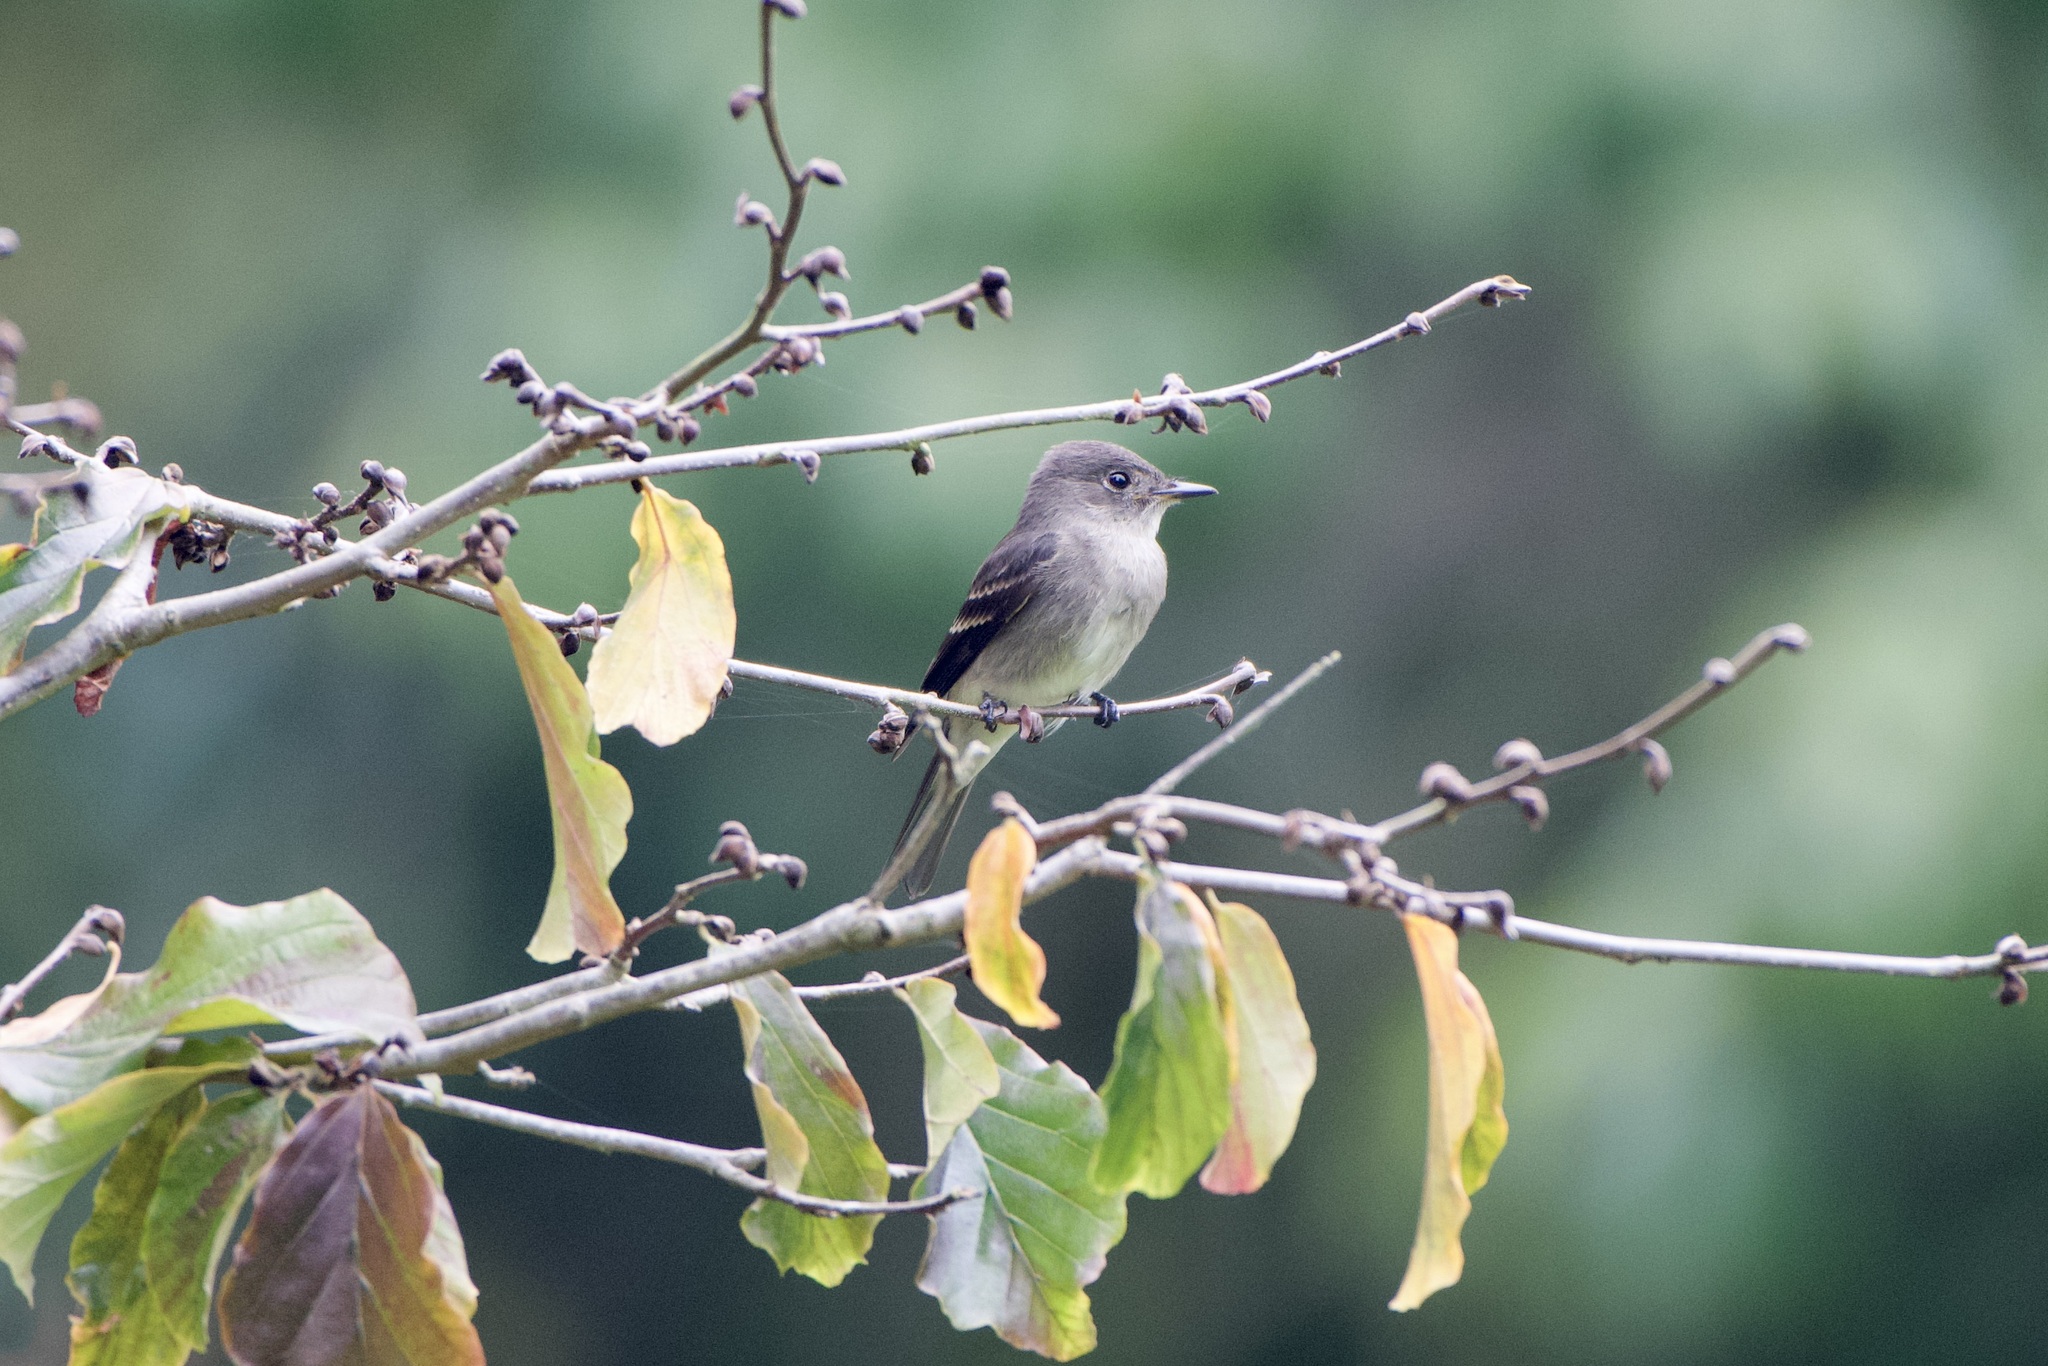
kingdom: Animalia
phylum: Chordata
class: Aves
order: Passeriformes
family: Tyrannidae
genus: Empidonax
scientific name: Empidonax traillii
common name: Willow flycatcher
